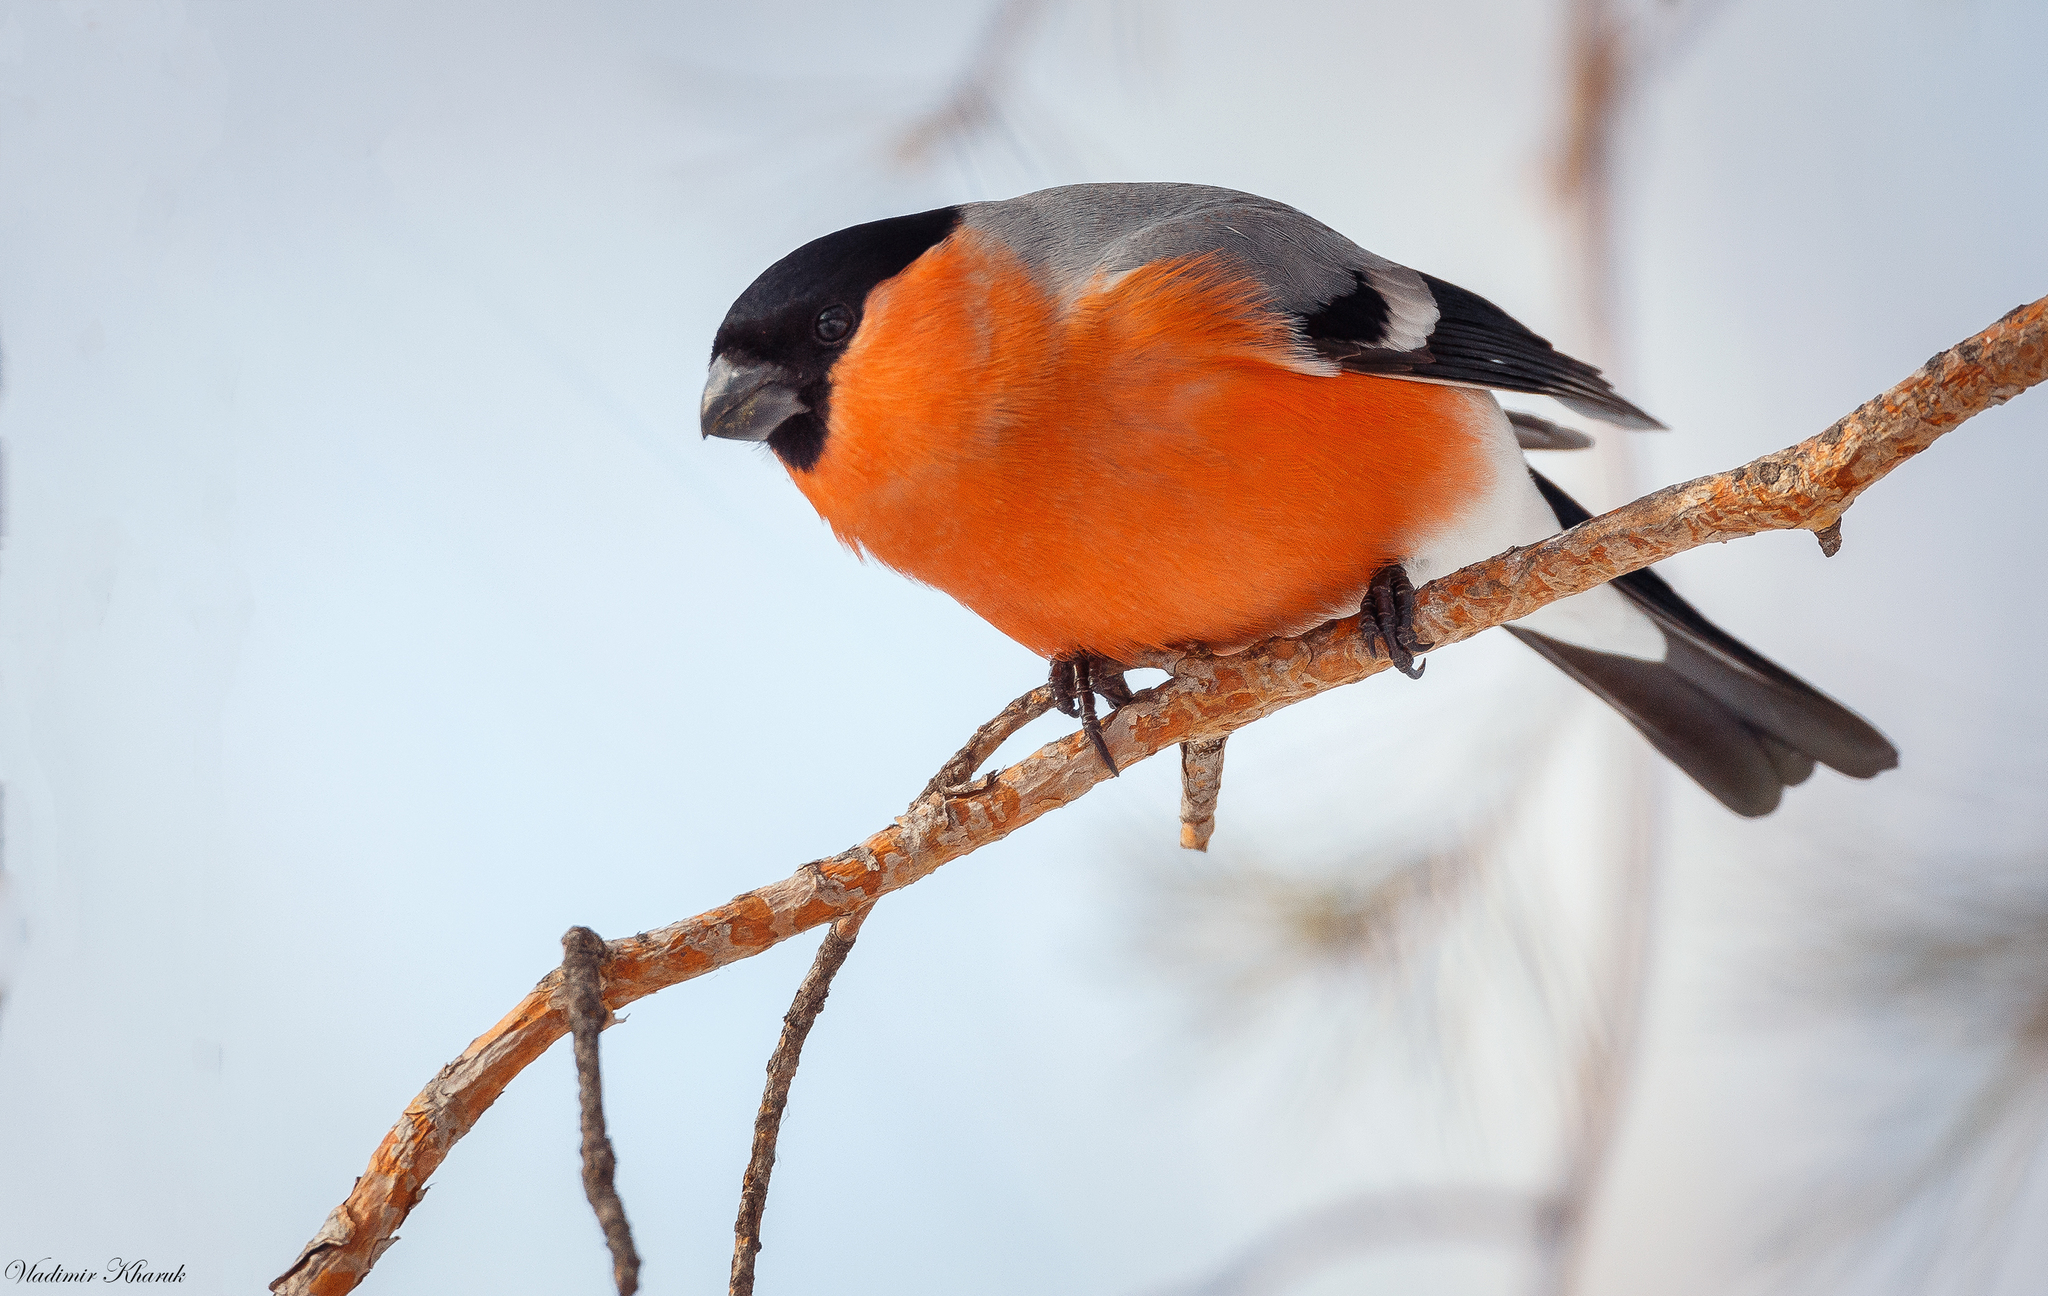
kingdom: Animalia
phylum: Chordata
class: Aves
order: Passeriformes
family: Fringillidae
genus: Pyrrhula
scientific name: Pyrrhula pyrrhula
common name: Eurasian bullfinch
